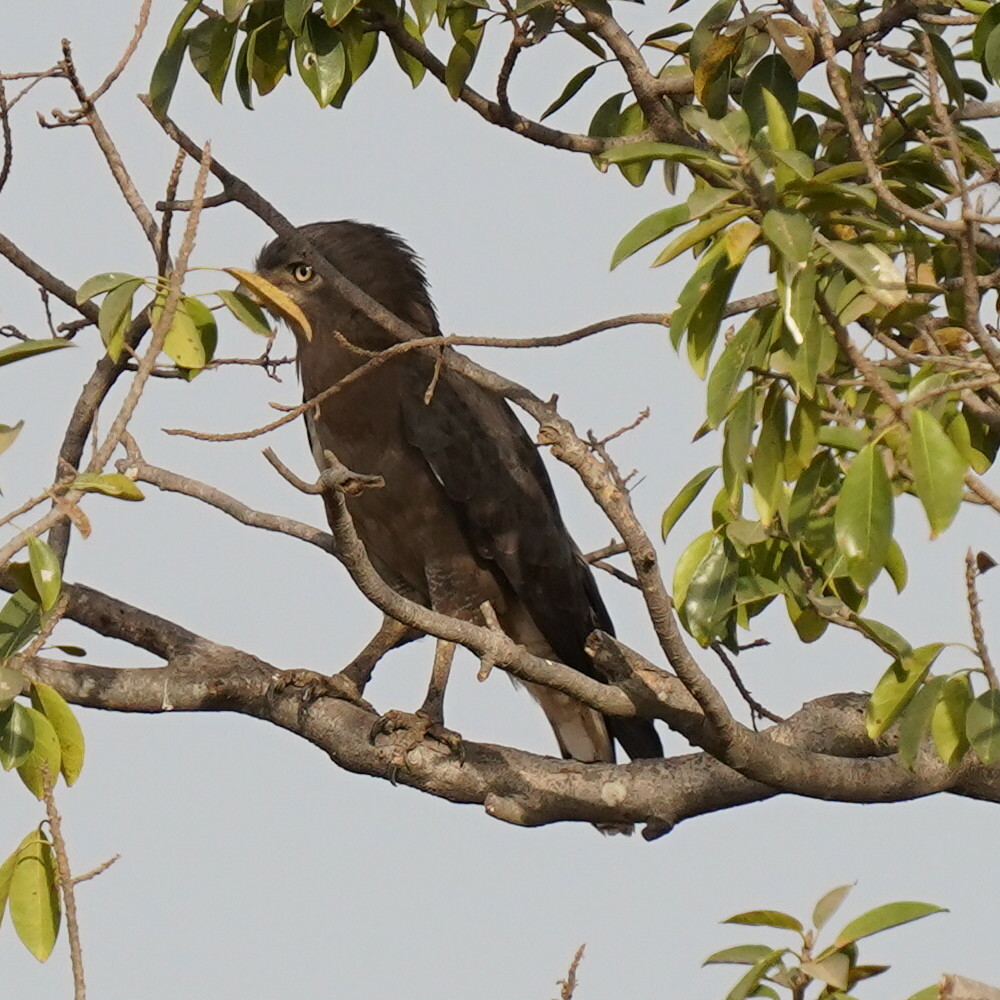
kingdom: Animalia
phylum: Chordata
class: Aves
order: Accipitriformes
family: Accipitridae
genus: Circaetus
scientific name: Circaetus cinerascens
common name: Western banded snake eagle
